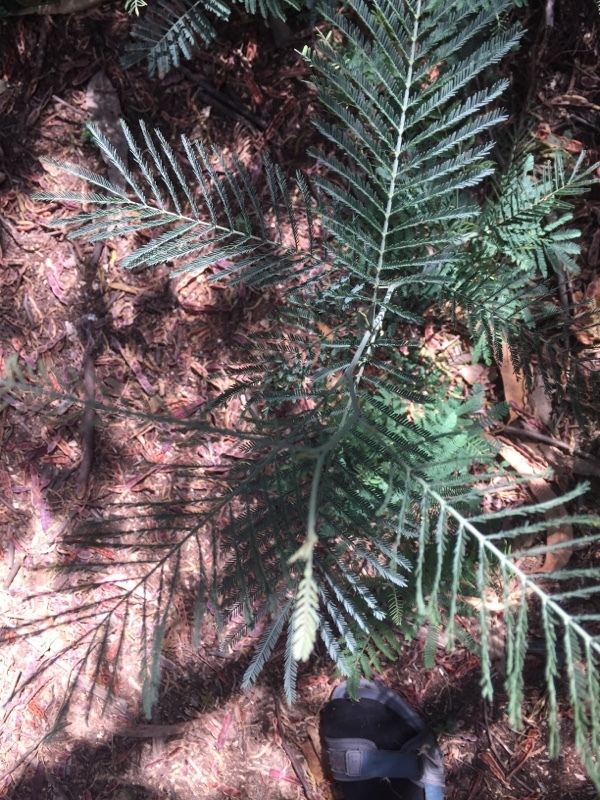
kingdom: Plantae
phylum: Tracheophyta
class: Magnoliopsida
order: Fabales
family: Fabaceae
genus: Acacia
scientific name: Acacia dealbata
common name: Silver wattle
